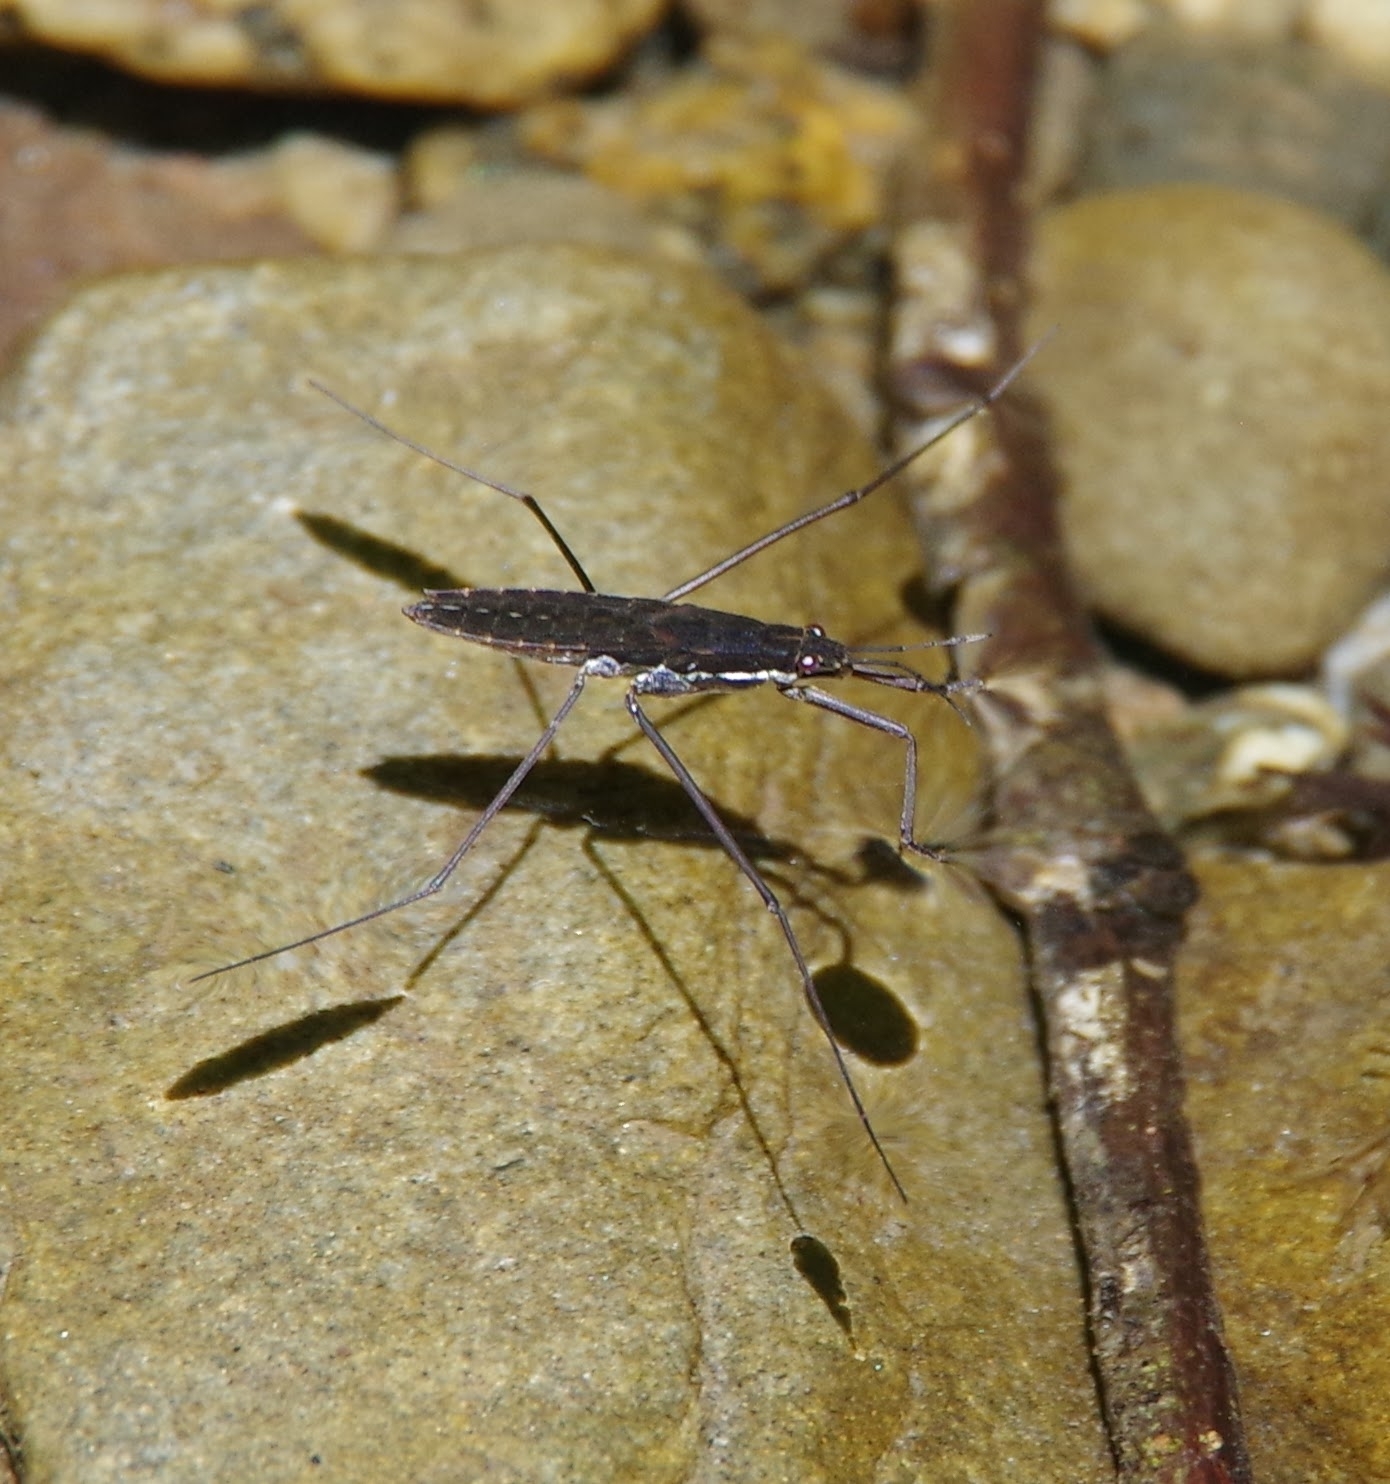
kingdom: Animalia
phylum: Arthropoda
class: Insecta
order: Hemiptera
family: Gerridae
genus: Aquarius
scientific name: Aquarius remigis
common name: Common water strider
